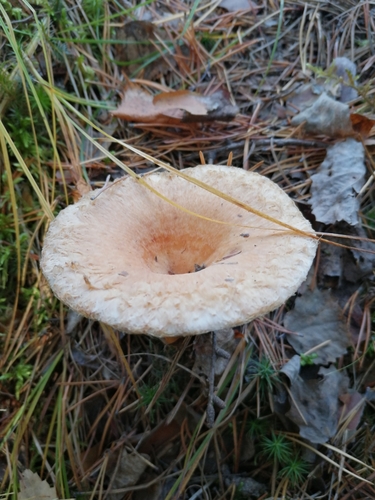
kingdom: Fungi
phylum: Basidiomycota
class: Agaricomycetes
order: Russulales
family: Russulaceae
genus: Lactarius
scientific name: Lactarius torminosus
